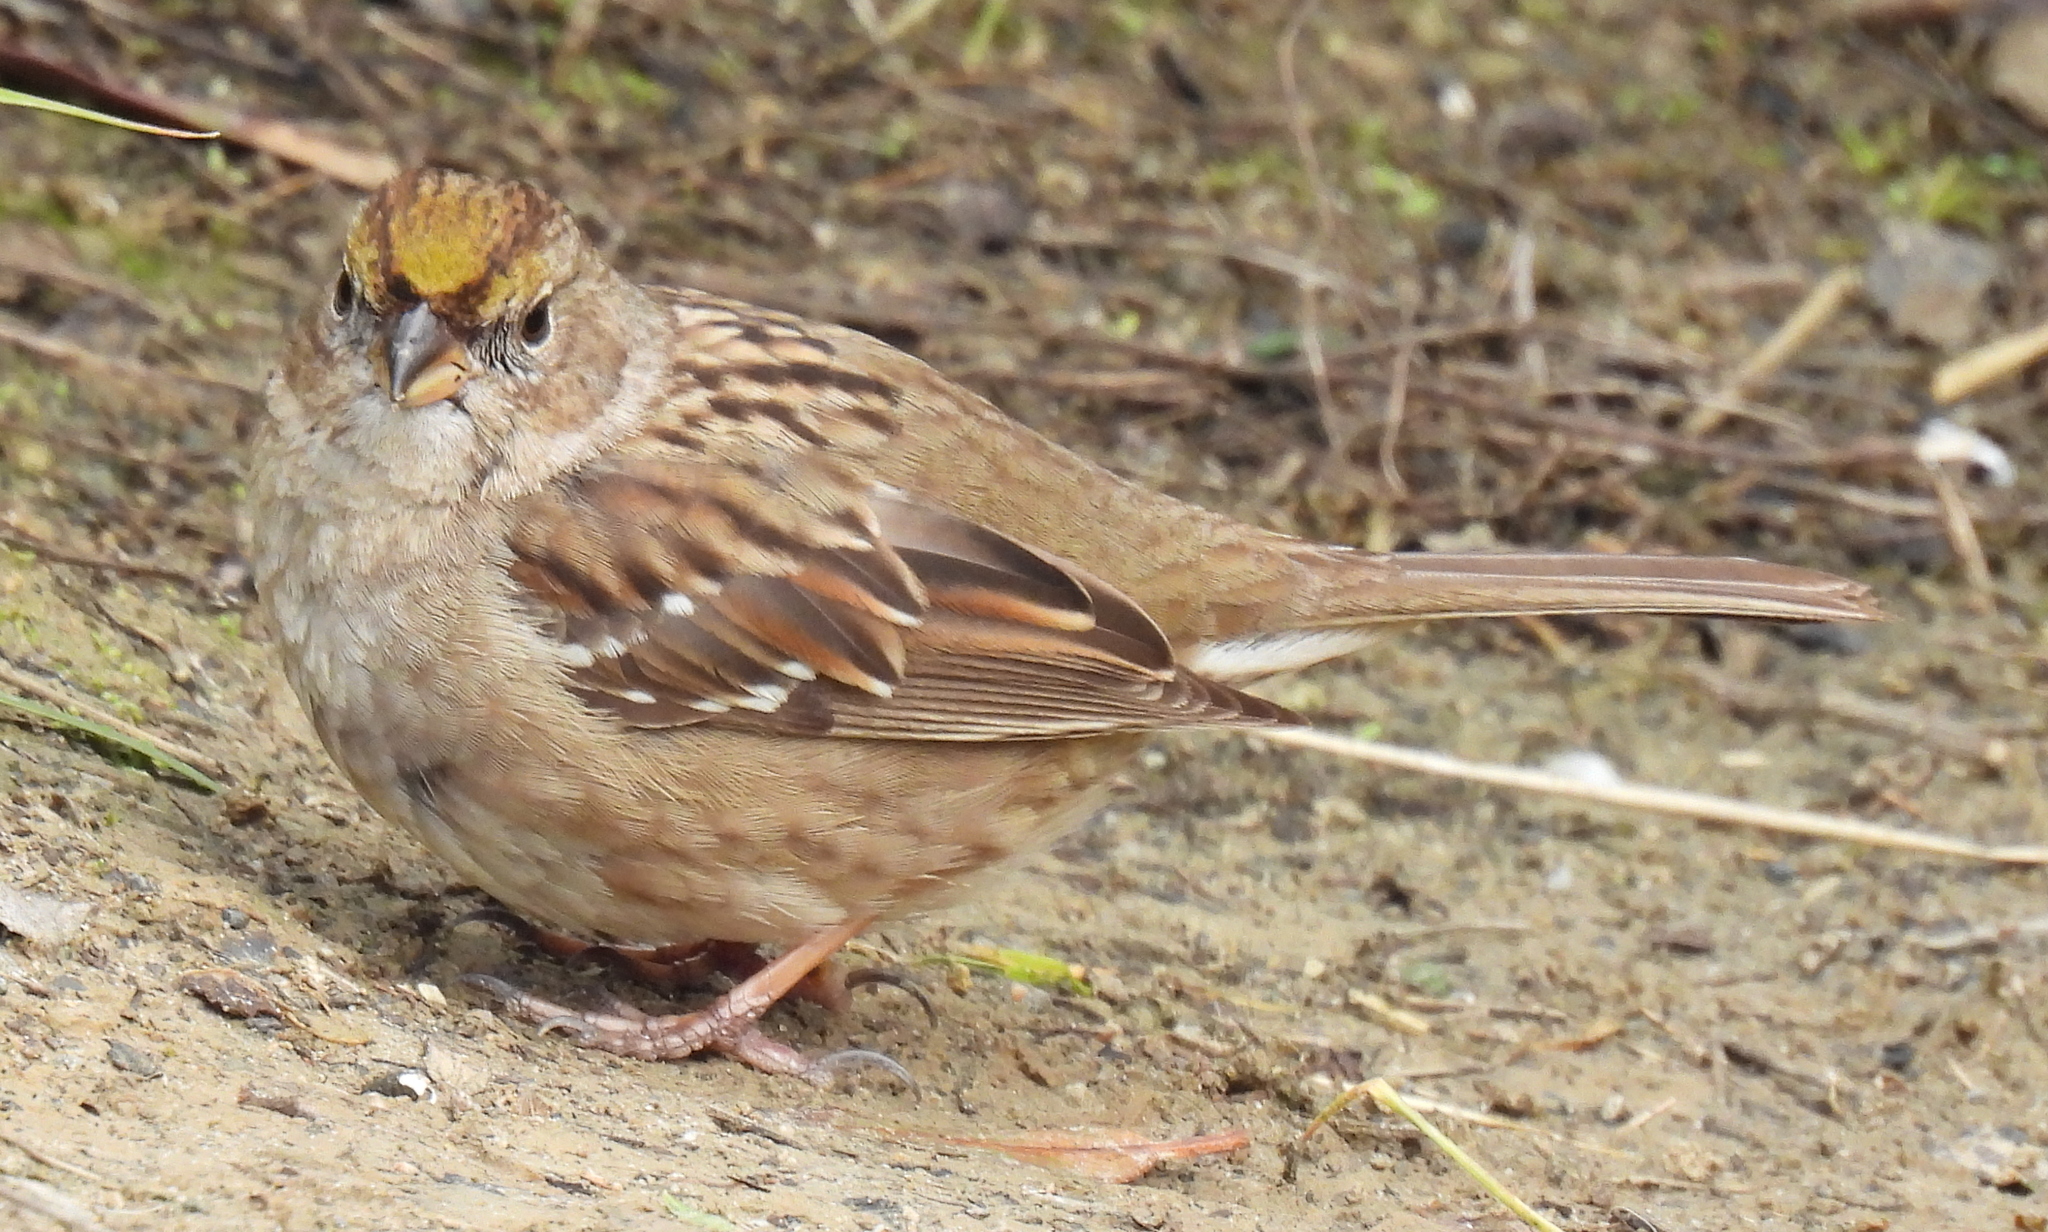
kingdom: Animalia
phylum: Chordata
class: Aves
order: Passeriformes
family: Passerellidae
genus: Zonotrichia
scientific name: Zonotrichia atricapilla
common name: Golden-crowned sparrow
